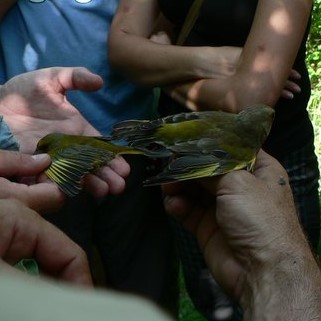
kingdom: Plantae
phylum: Tracheophyta
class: Liliopsida
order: Poales
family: Poaceae
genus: Chloris
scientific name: Chloris chloris
